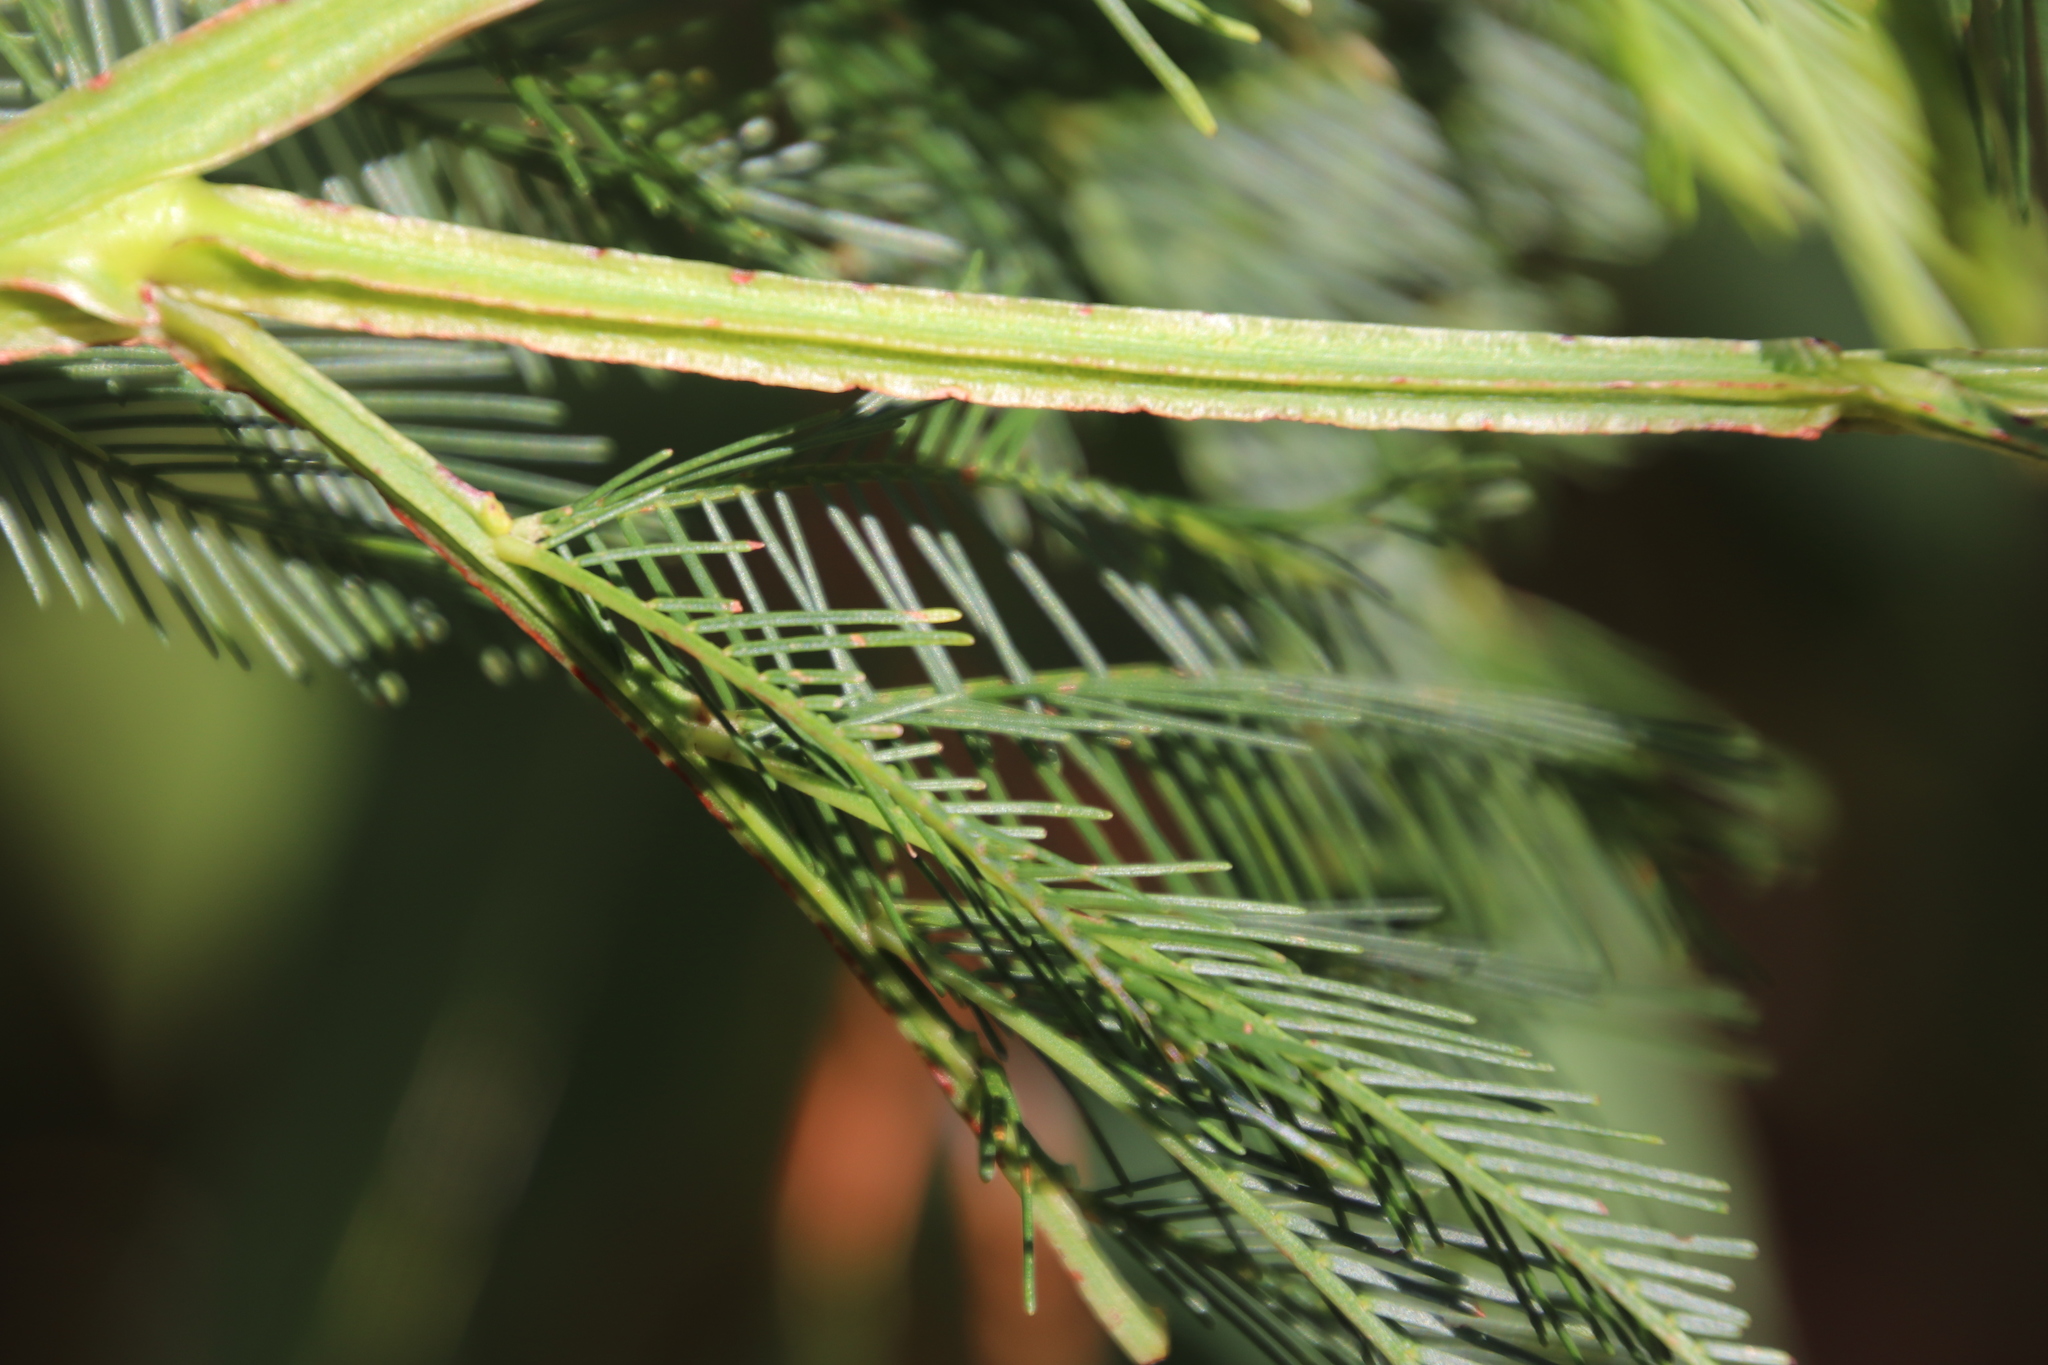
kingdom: Plantae
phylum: Tracheophyta
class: Magnoliopsida
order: Fabales
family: Fabaceae
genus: Acacia
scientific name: Acacia decurrens
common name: Green wattle
